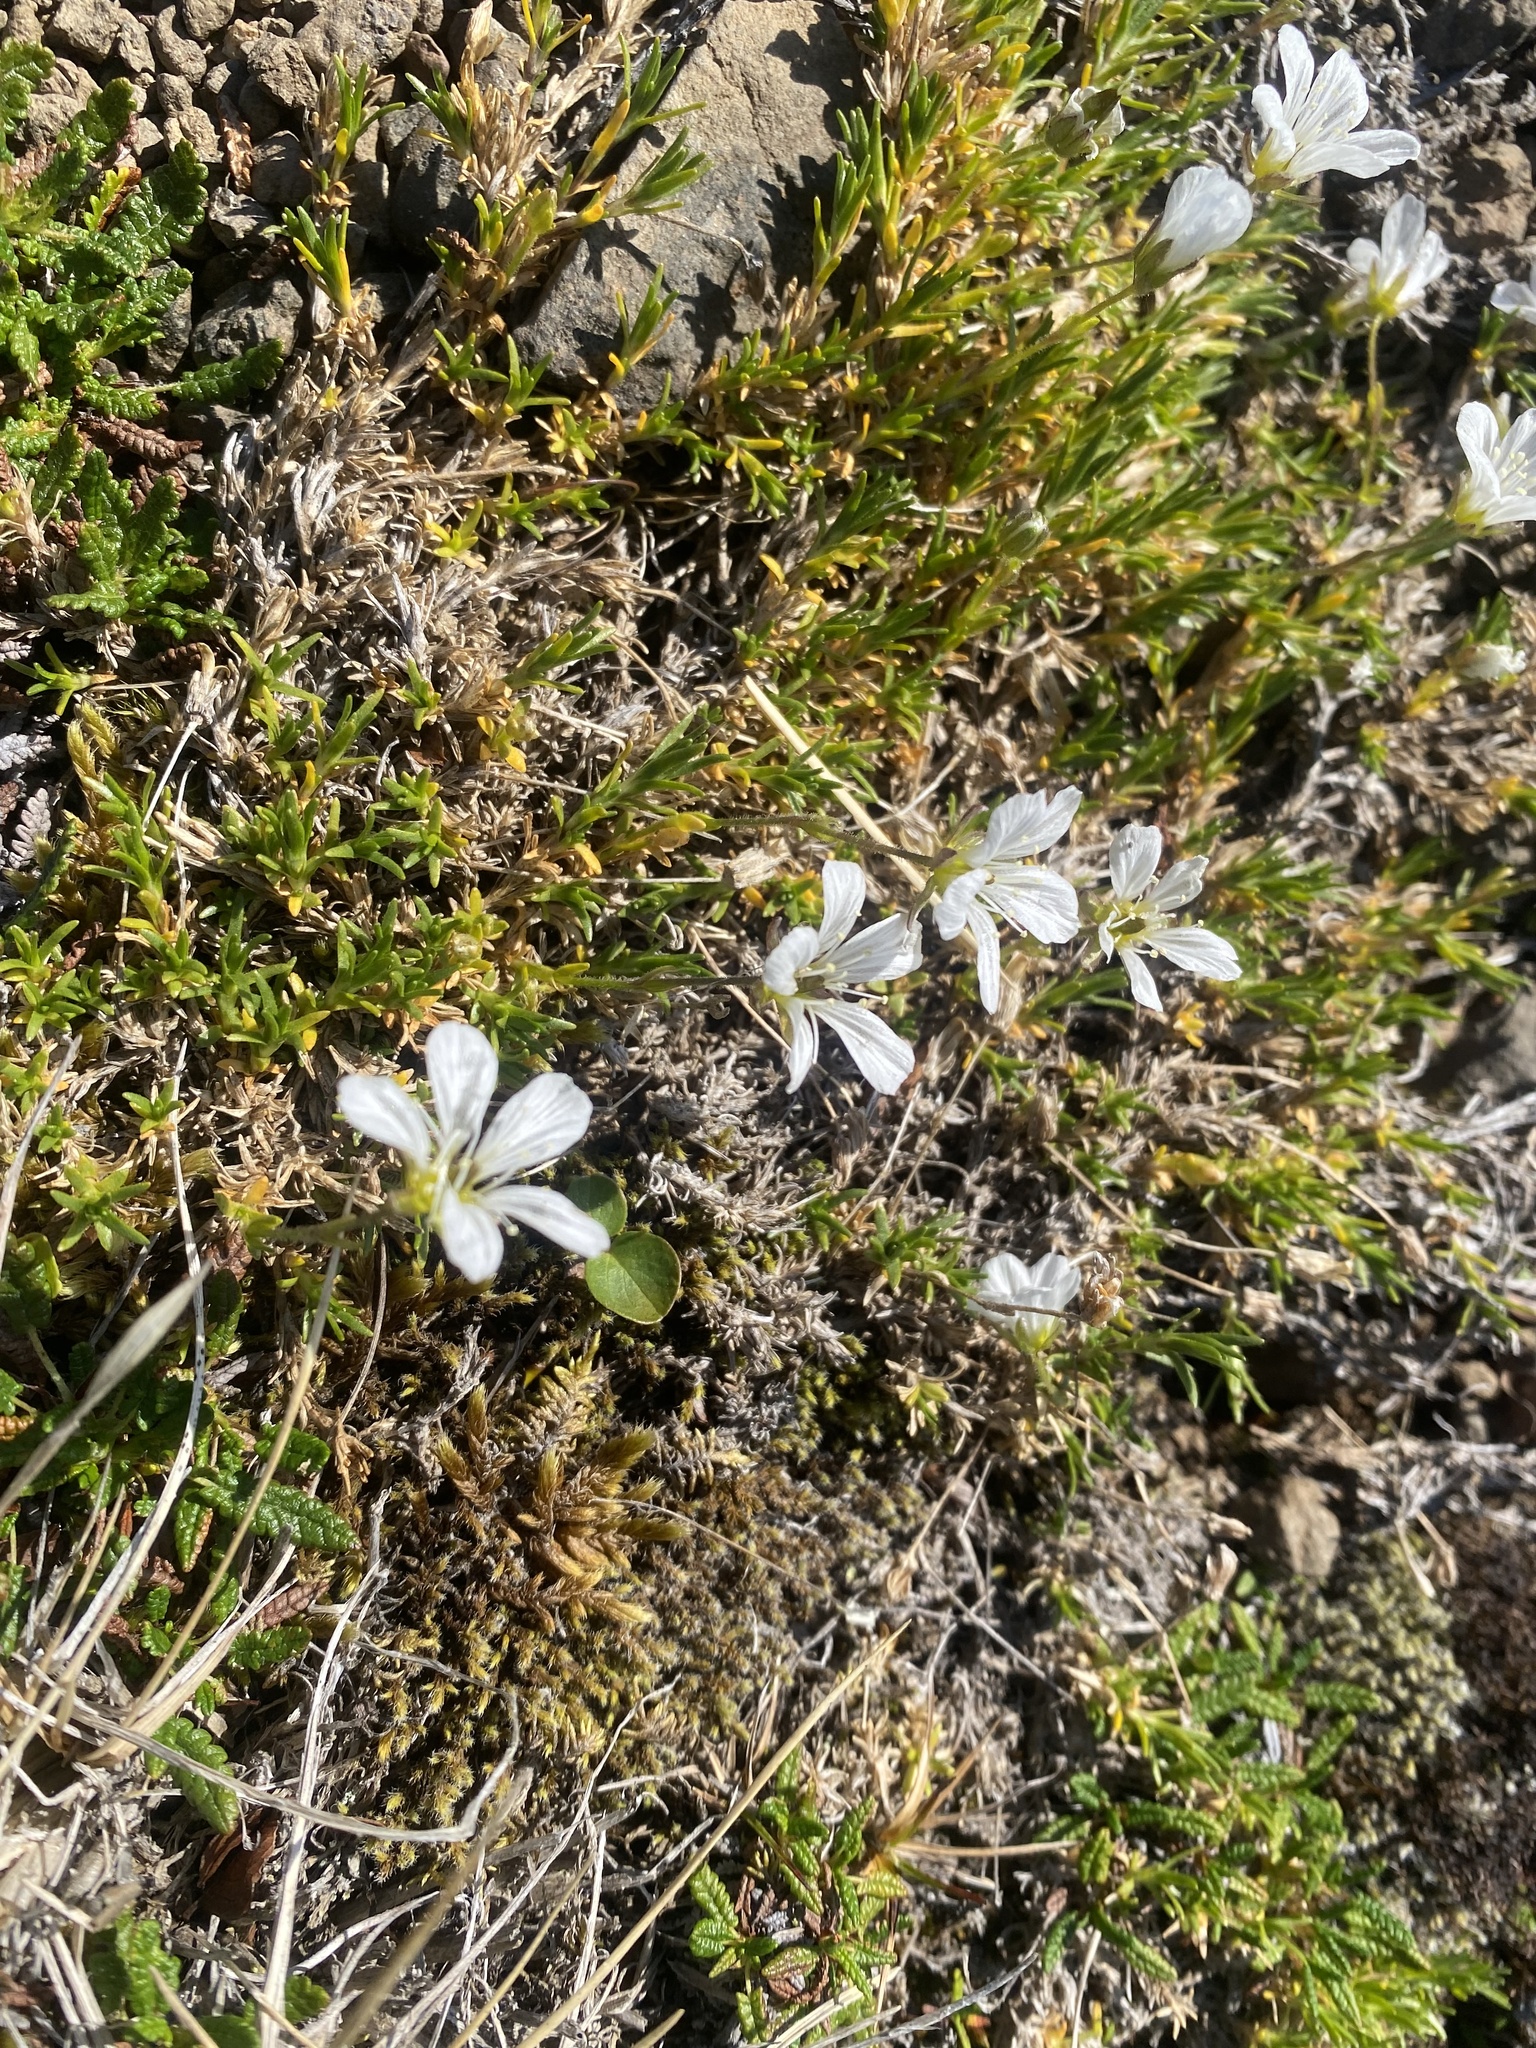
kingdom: Plantae
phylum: Tracheophyta
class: Magnoliopsida
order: Caryophyllales
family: Caryophyllaceae
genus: Pseudocherleria
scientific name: Pseudocherleria macrocarpa
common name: Large-fruit sandwort
